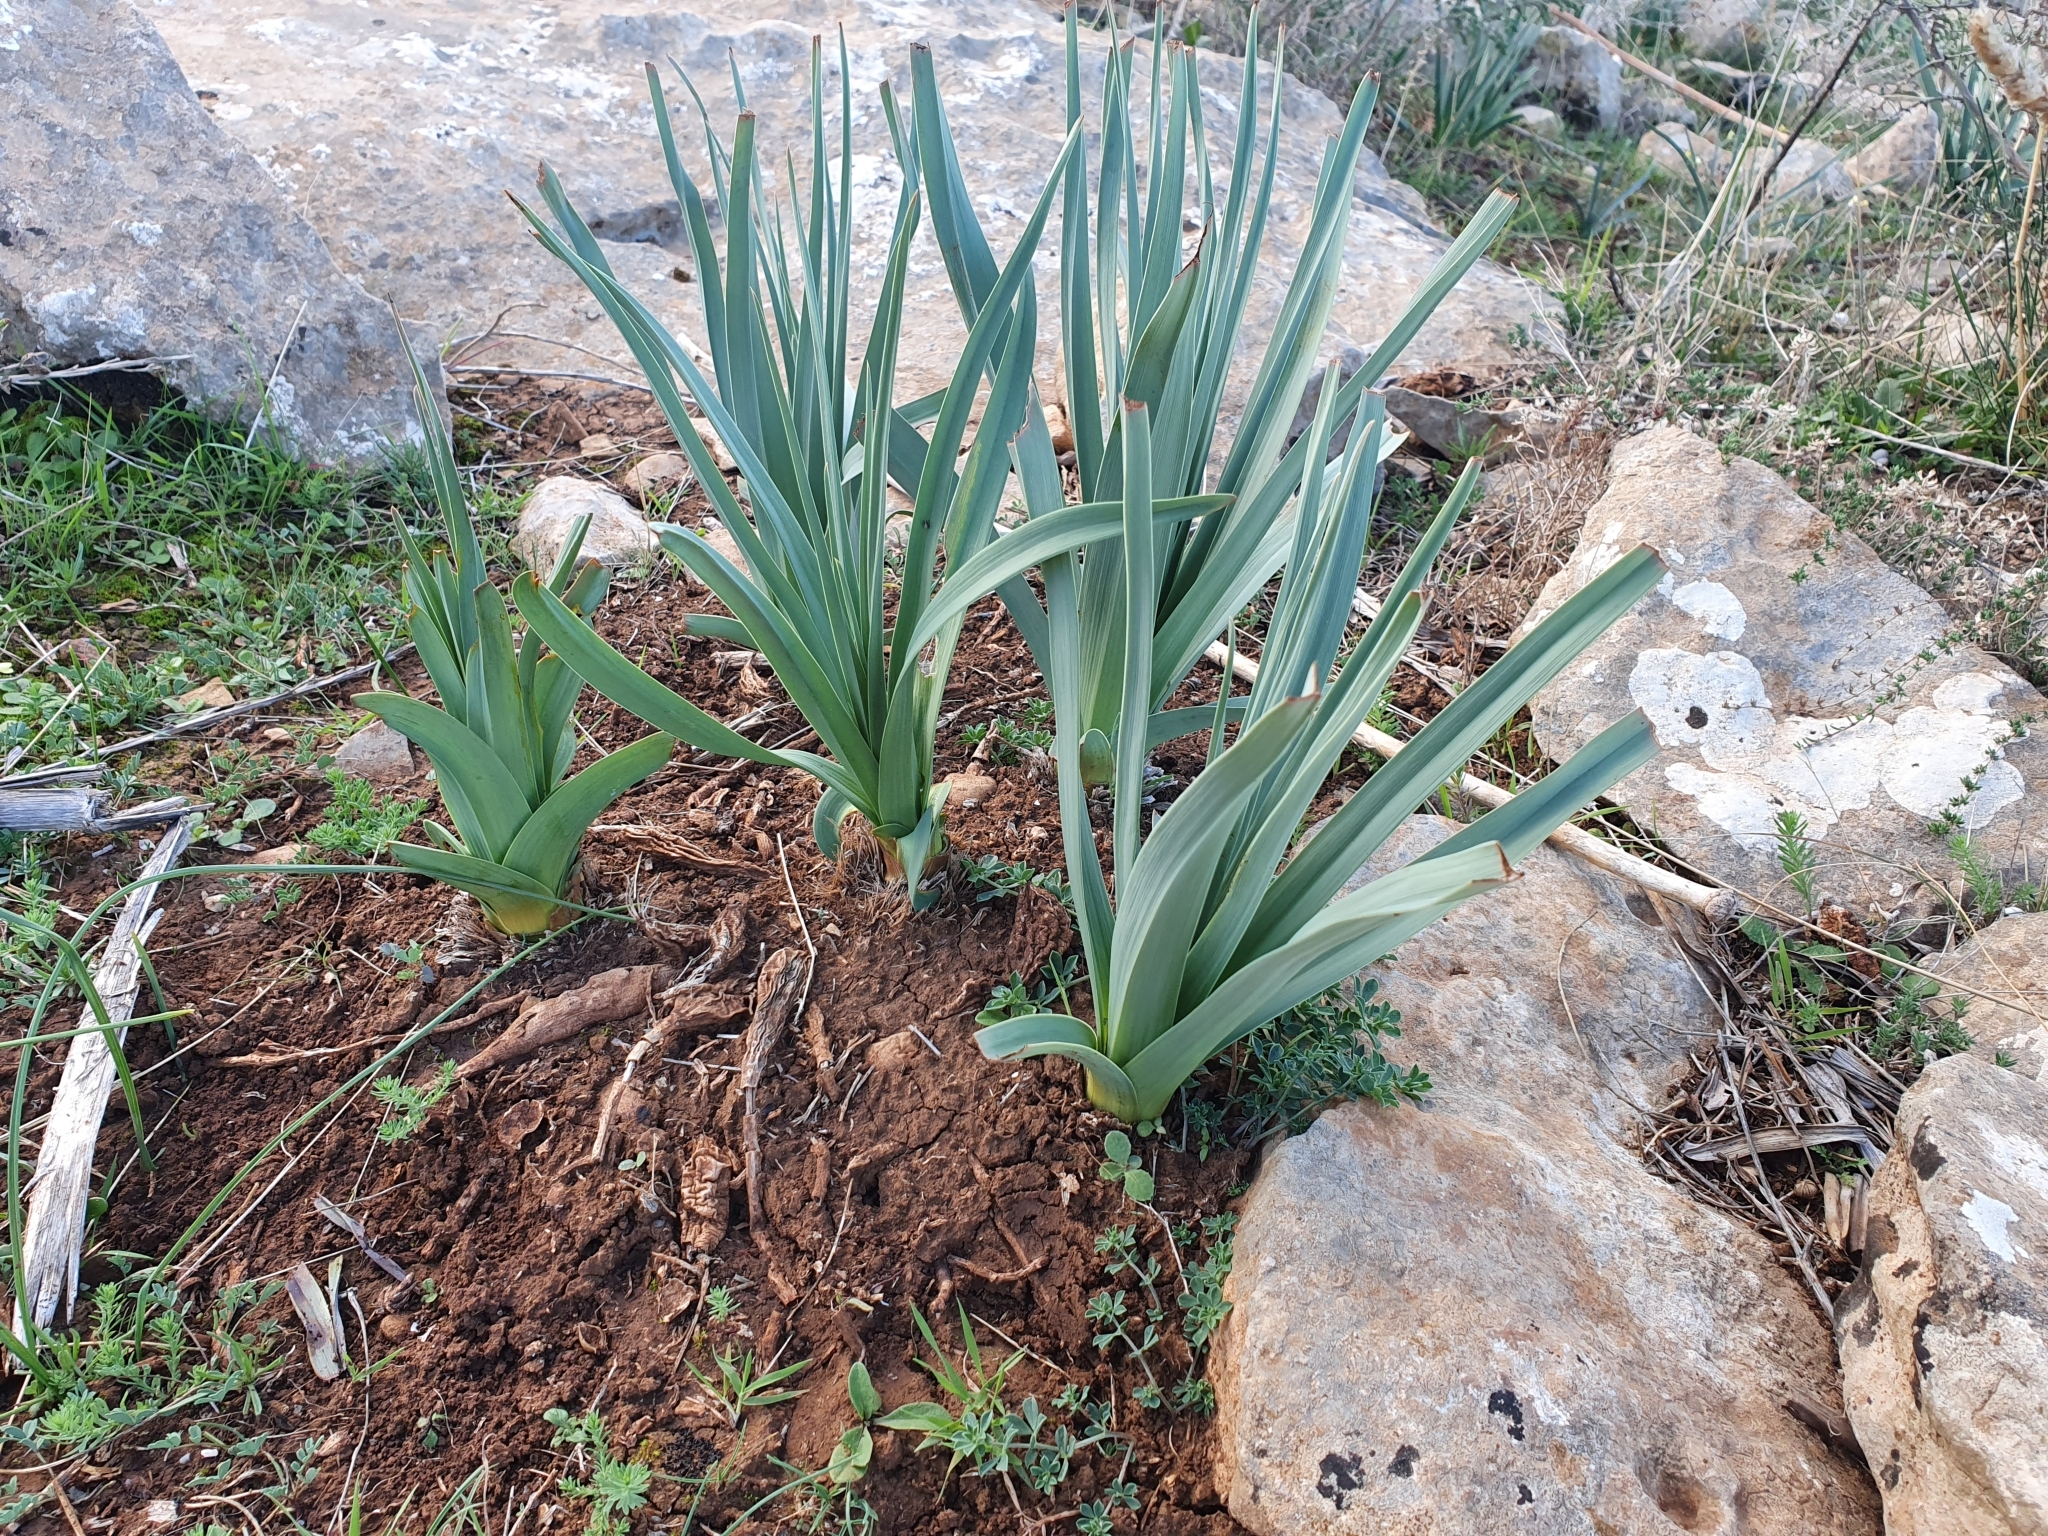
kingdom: Plantae
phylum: Tracheophyta
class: Liliopsida
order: Asparagales
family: Asphodelaceae
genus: Asphodelus
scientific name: Asphodelus ramosus
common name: Silverrod
